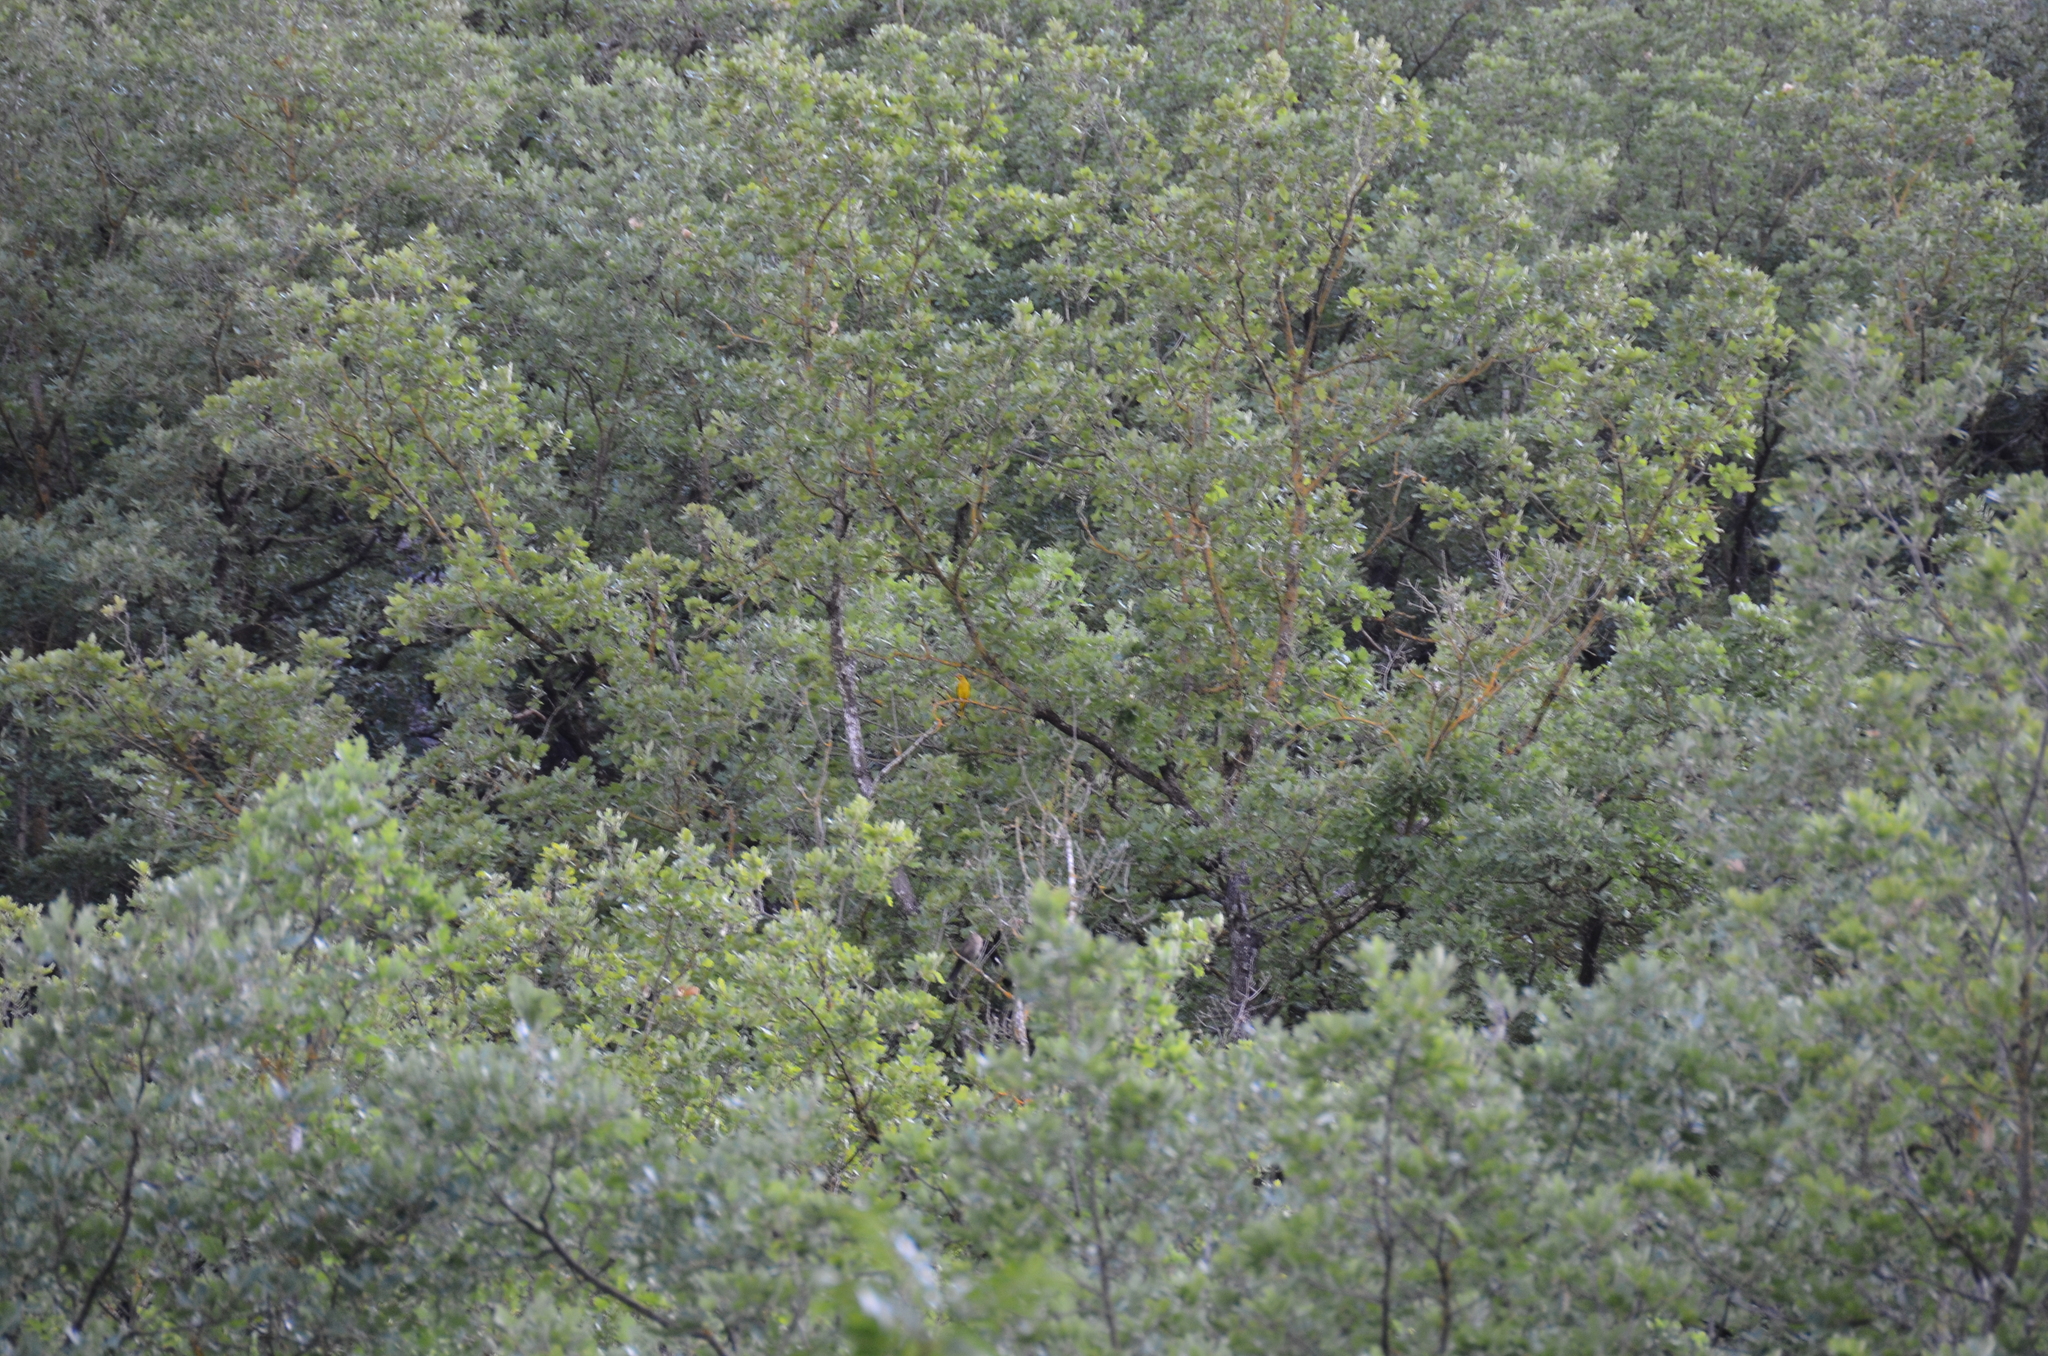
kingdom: Animalia
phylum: Chordata
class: Aves
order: Passeriformes
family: Oriolidae
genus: Oriolus
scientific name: Oriolus oriolus
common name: Eurasian golden oriole
